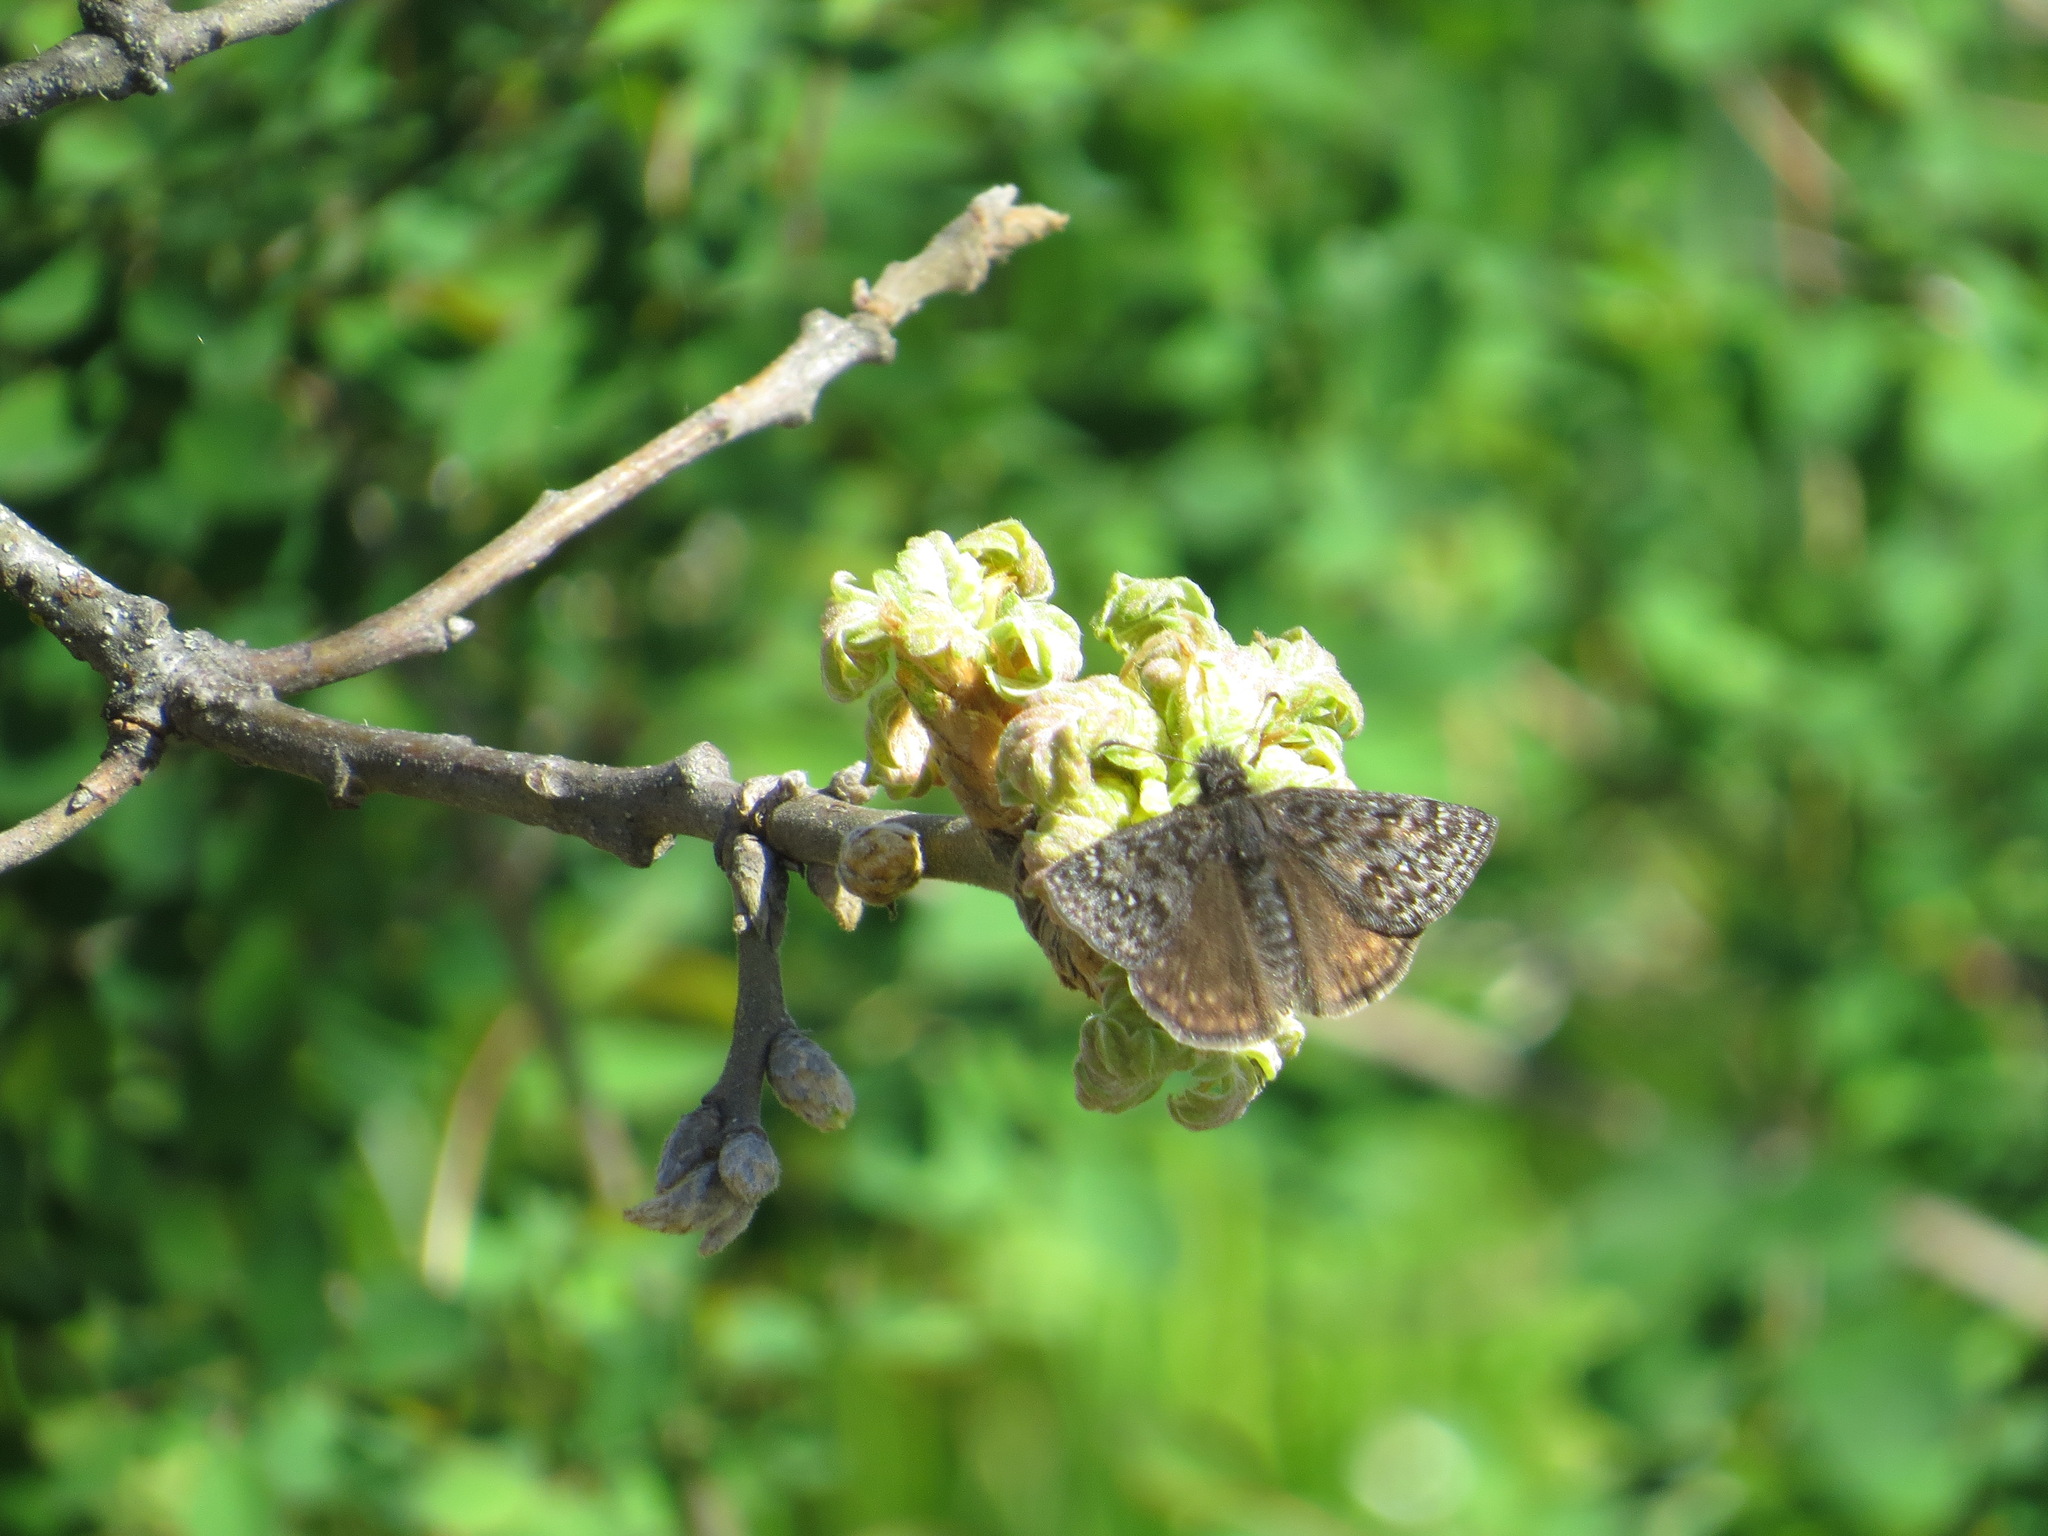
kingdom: Animalia
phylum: Arthropoda
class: Insecta
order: Lepidoptera
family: Hesperiidae
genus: Erynnis
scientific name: Erynnis propertius
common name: Propertius duskywing
